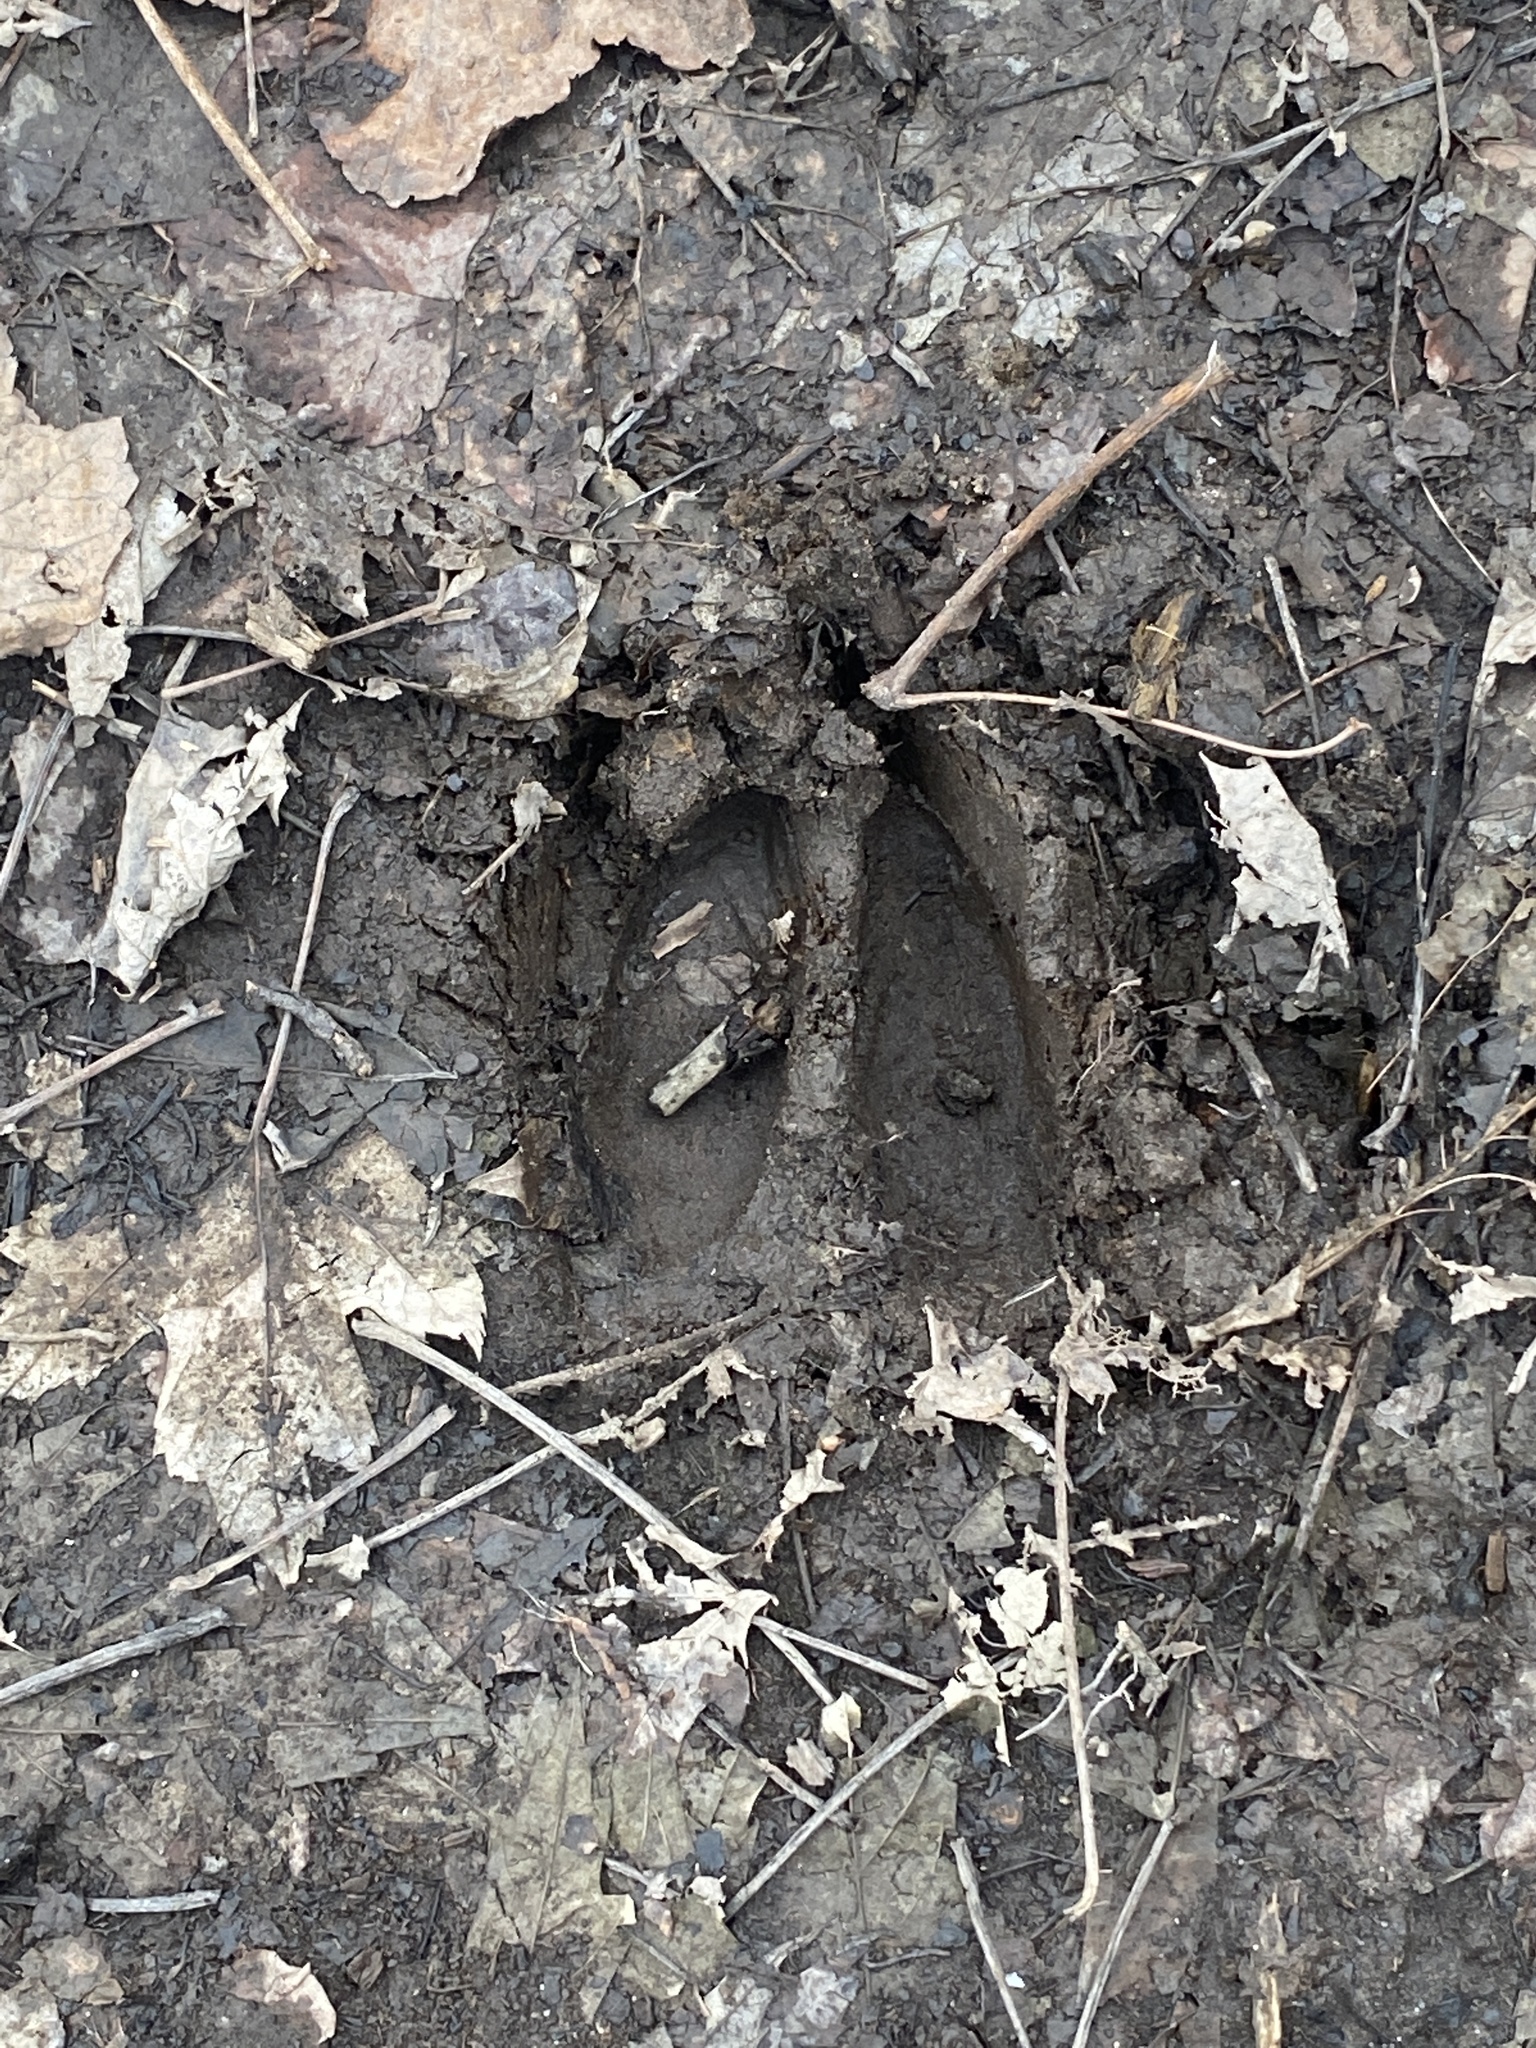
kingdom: Animalia
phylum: Chordata
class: Mammalia
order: Artiodactyla
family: Cervidae
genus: Odocoileus
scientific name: Odocoileus virginianus
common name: White-tailed deer
